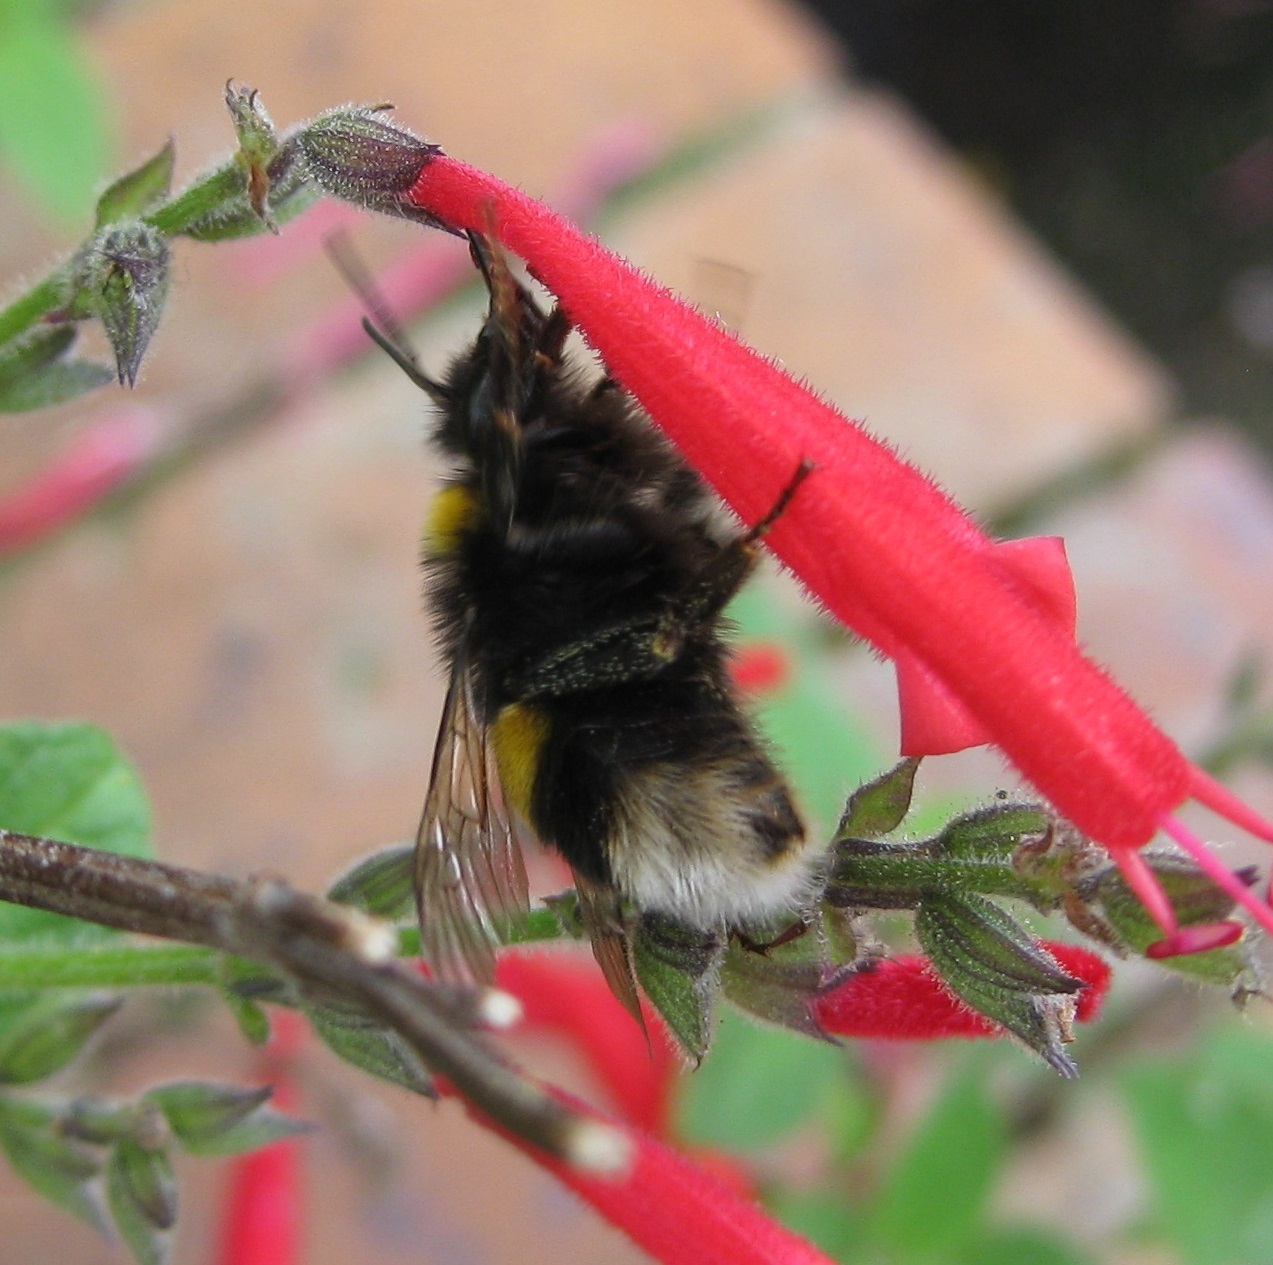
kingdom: Animalia
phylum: Arthropoda
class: Insecta
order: Hymenoptera
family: Apidae
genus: Bombus
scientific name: Bombus terrestris
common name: Buff-tailed bumblebee
